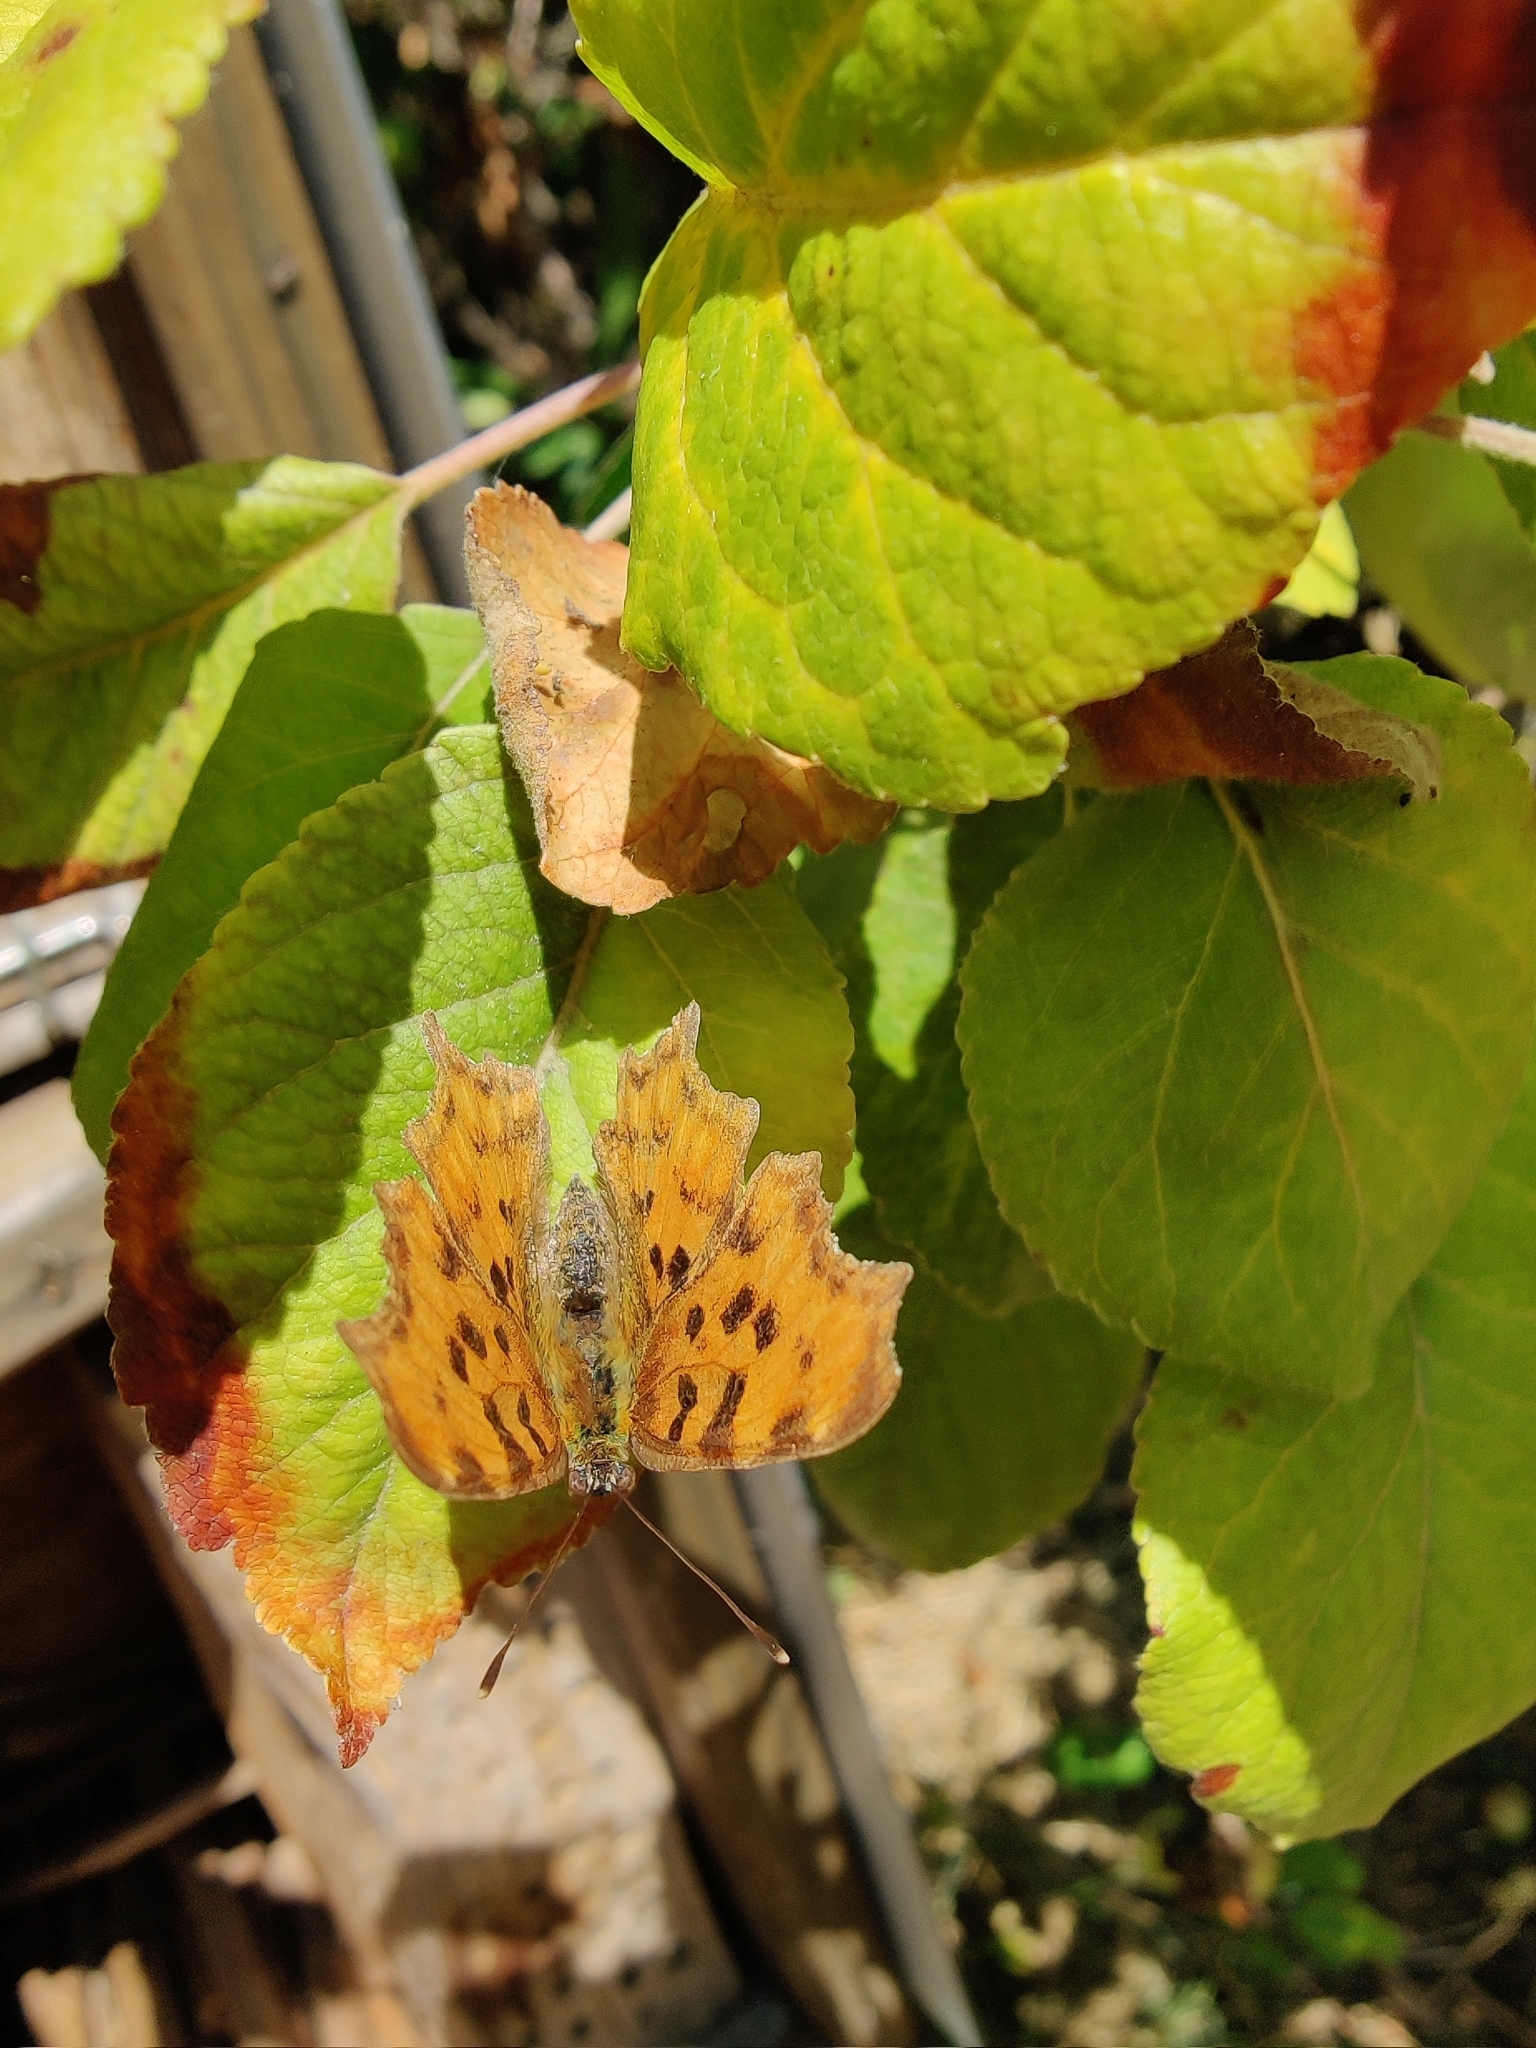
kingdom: Animalia
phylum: Arthropoda
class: Insecta
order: Lepidoptera
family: Nymphalidae
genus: Polygonia
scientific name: Polygonia c-album
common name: Comma
